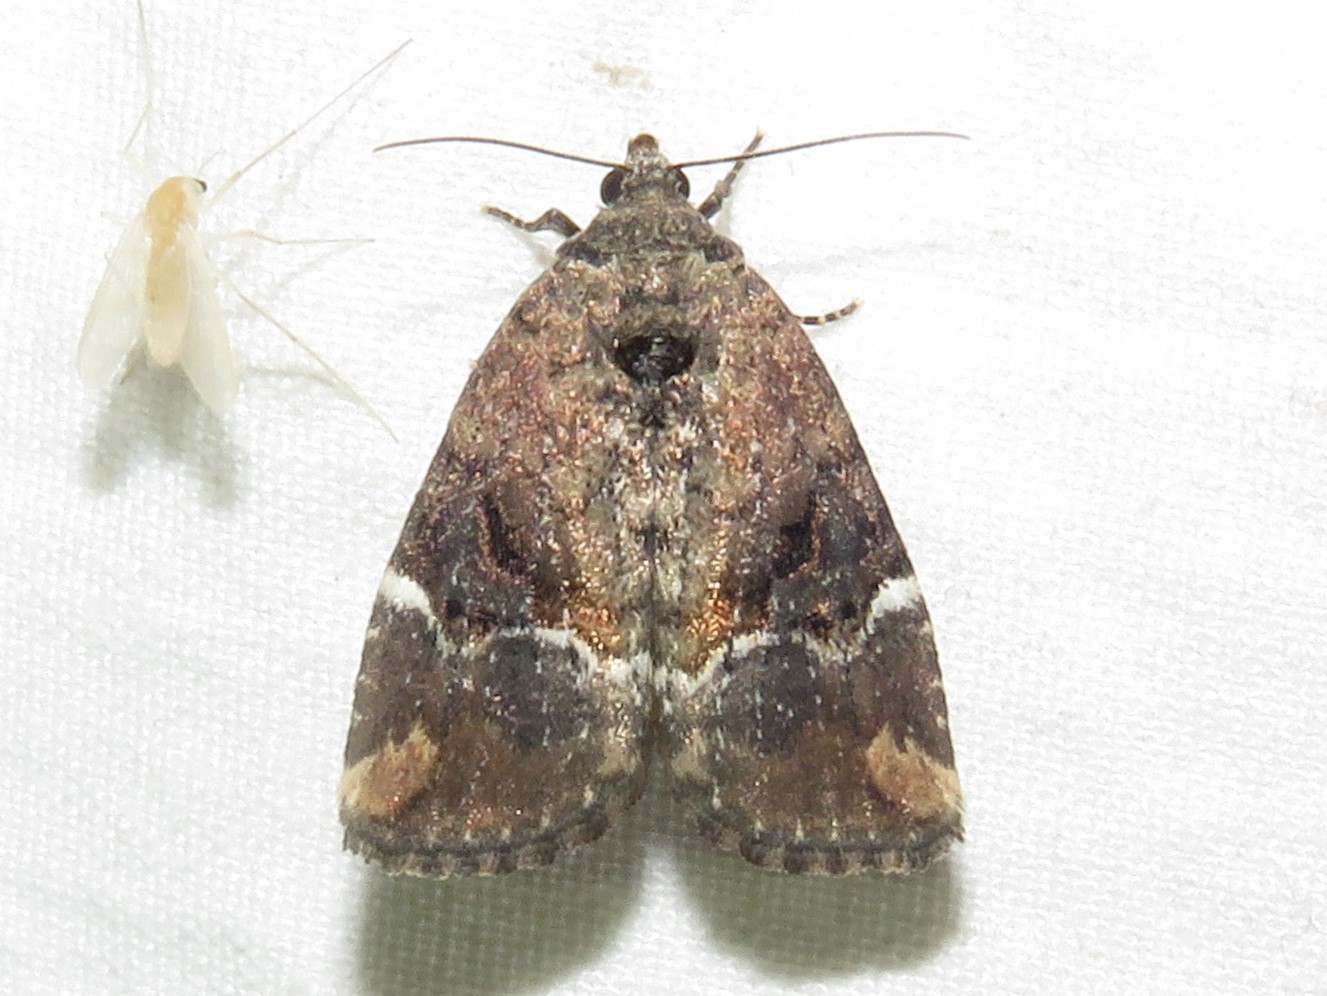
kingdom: Animalia
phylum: Arthropoda
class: Insecta
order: Lepidoptera
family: Noctuidae
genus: Elaphria
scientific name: Elaphria versicolor
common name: Fir harlequin
